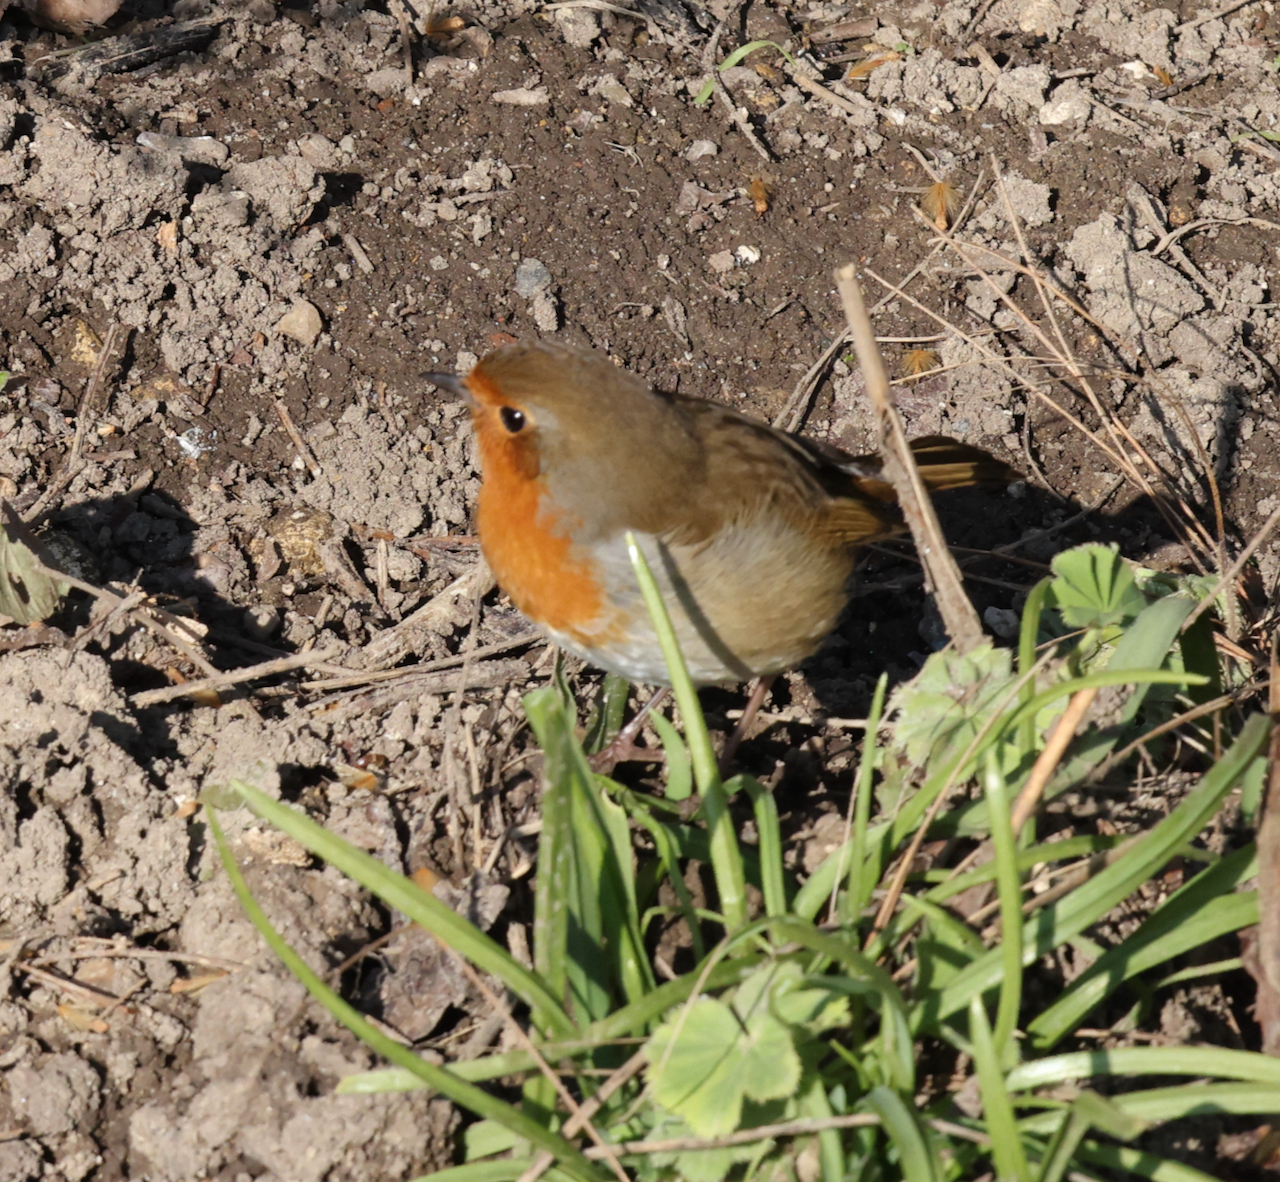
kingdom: Animalia
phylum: Chordata
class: Aves
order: Passeriformes
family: Muscicapidae
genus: Erithacus
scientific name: Erithacus rubecula
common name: European robin
